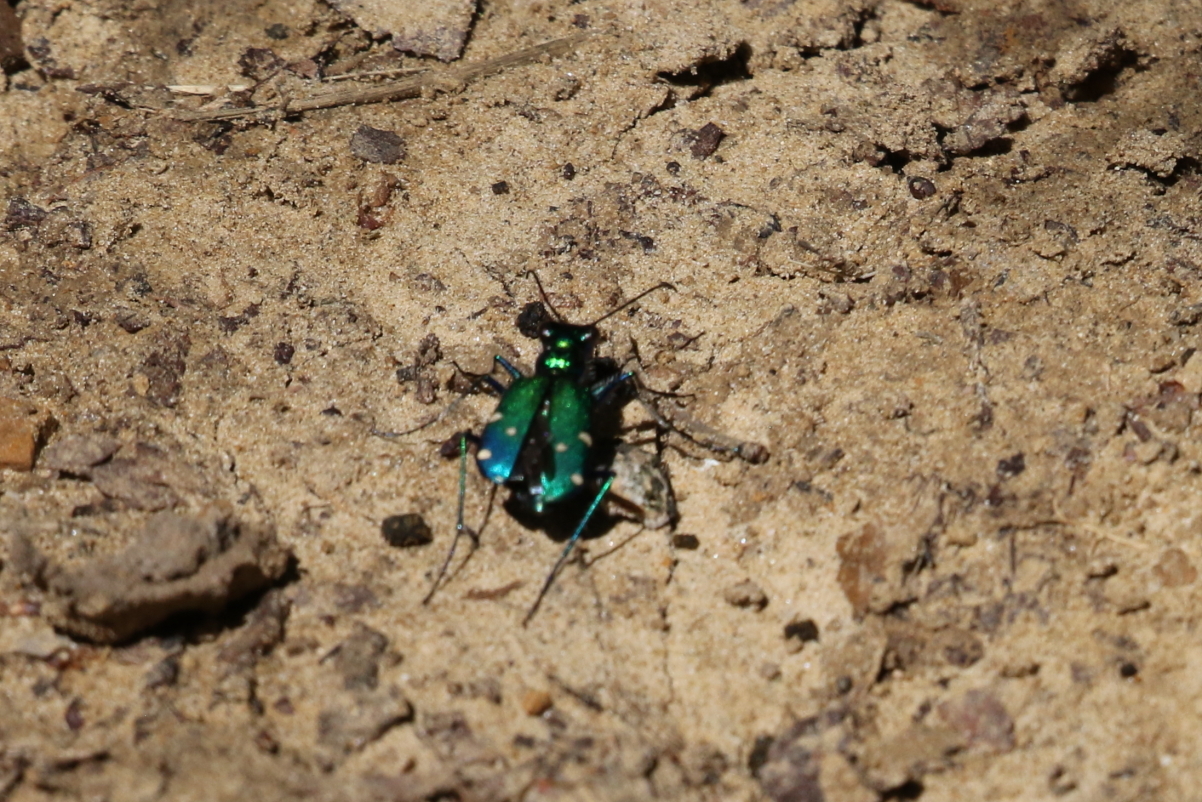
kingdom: Animalia
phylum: Arthropoda
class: Insecta
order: Coleoptera
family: Carabidae
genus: Cicindela
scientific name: Cicindela sexguttata
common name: Six-spotted tiger beetle
